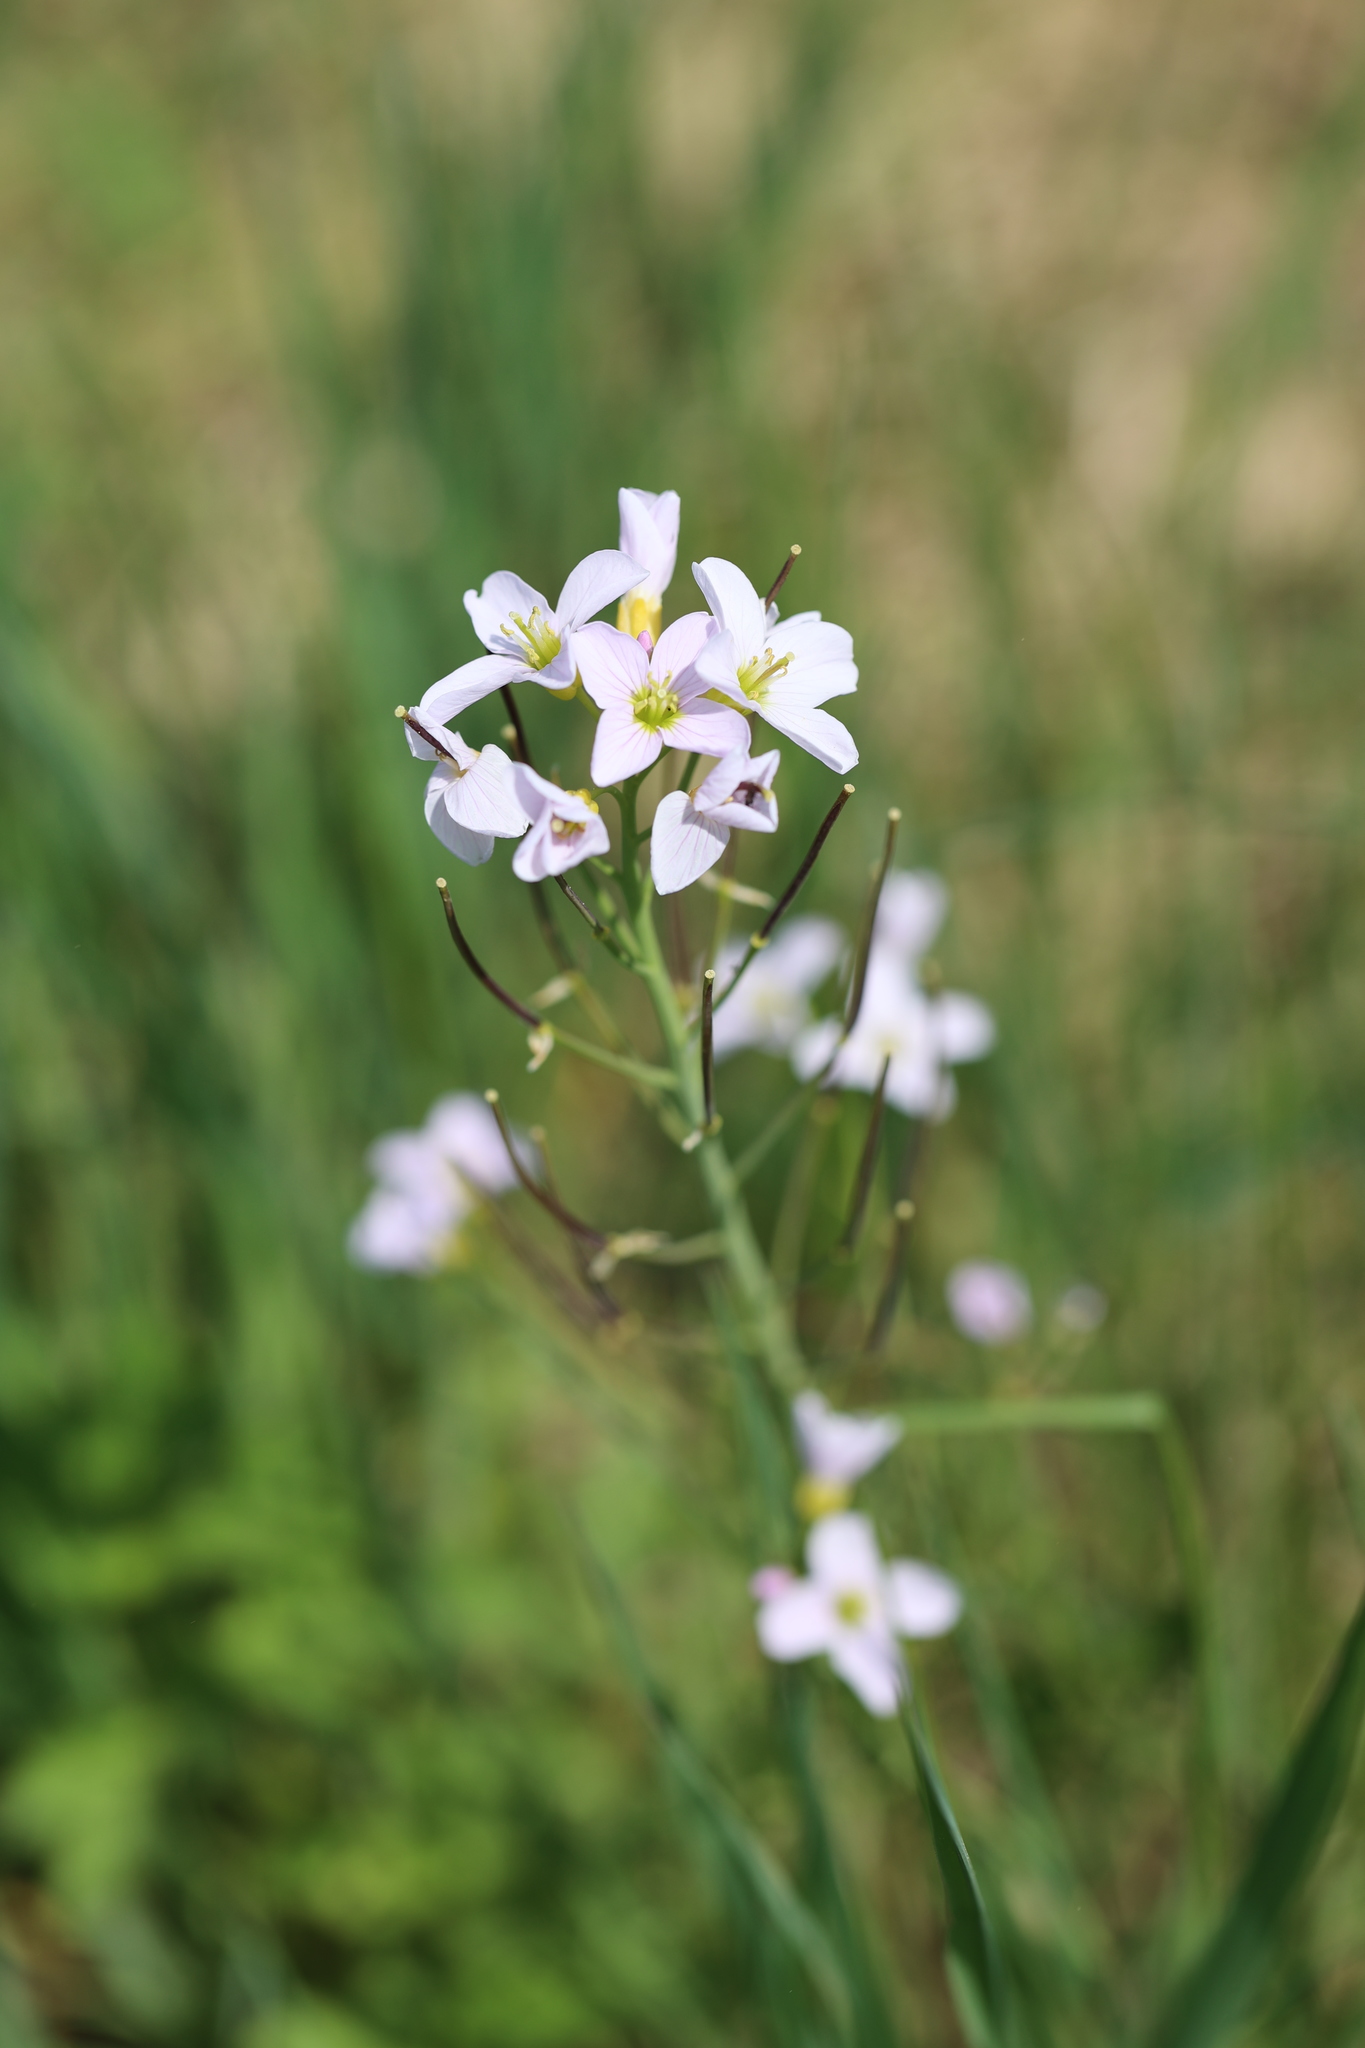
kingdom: Plantae
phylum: Tracheophyta
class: Magnoliopsida
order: Brassicales
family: Brassicaceae
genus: Cardamine
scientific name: Cardamine pratensis
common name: Cuckoo flower
